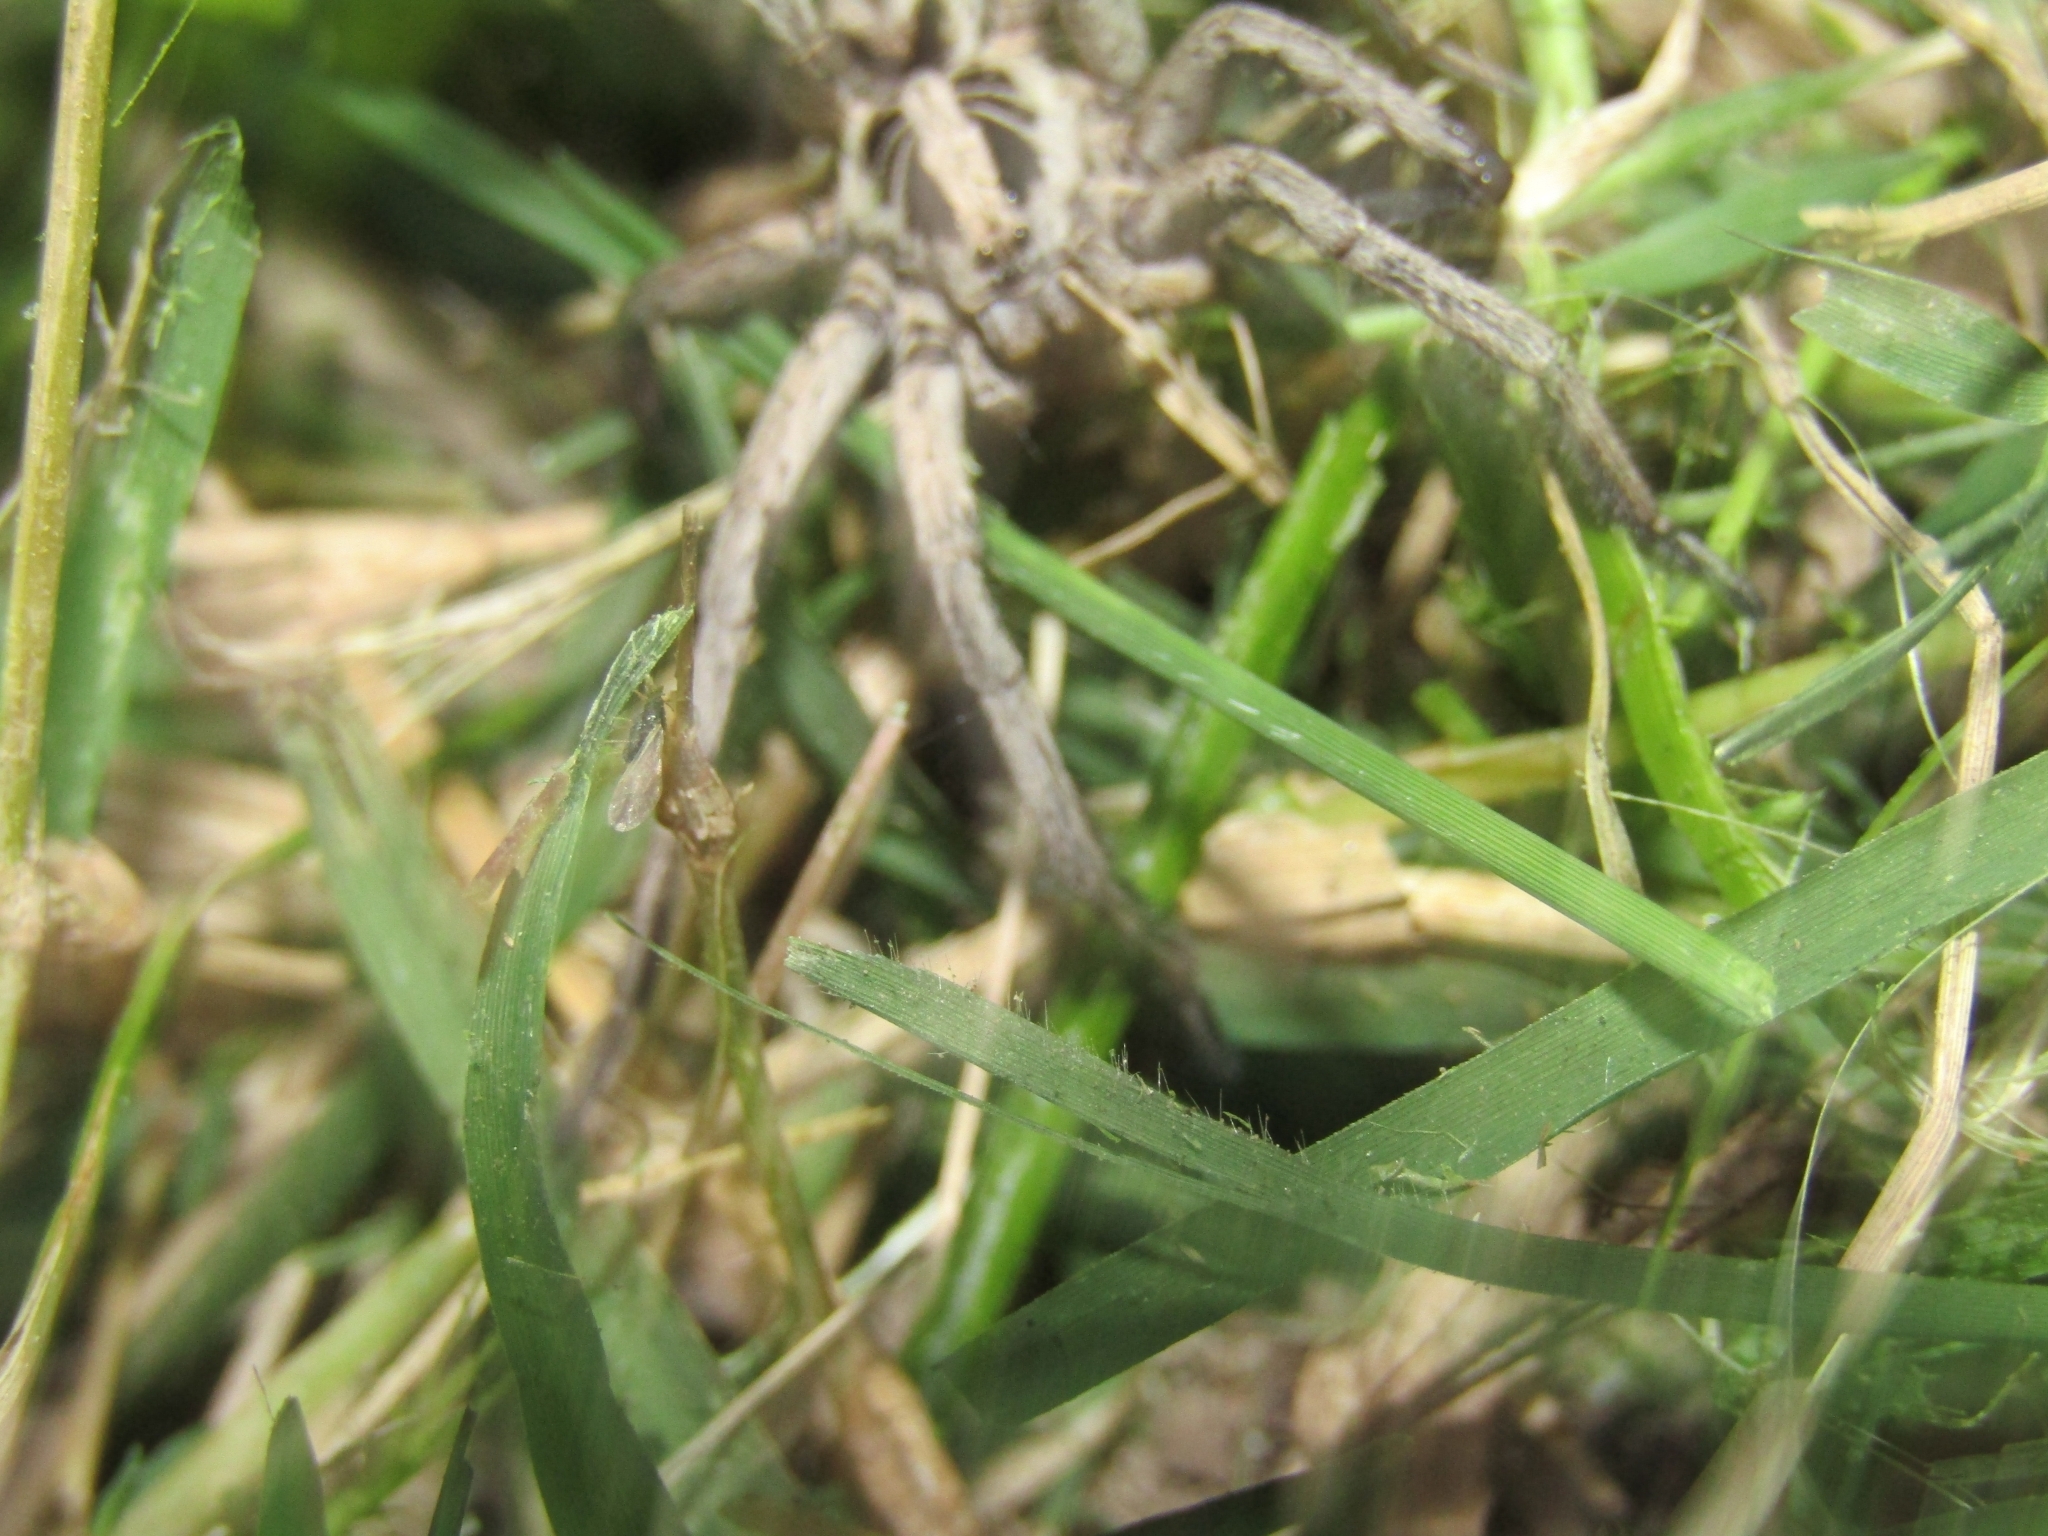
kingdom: Animalia
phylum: Arthropoda
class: Arachnida
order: Araneae
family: Lycosidae
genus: Lycosa
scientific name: Lycosa erythrognatha
